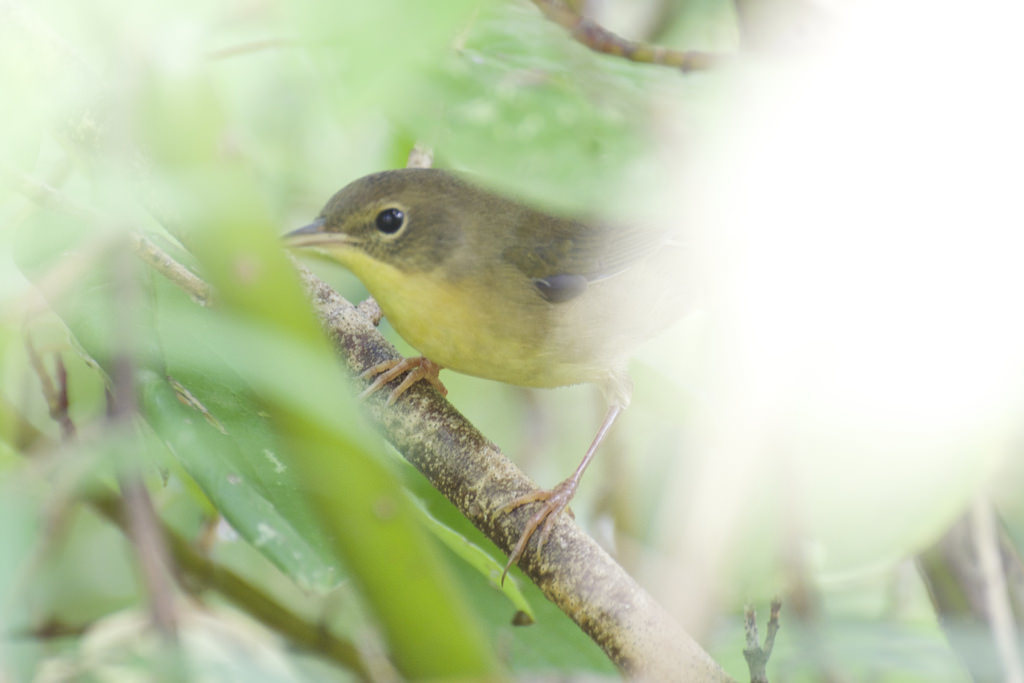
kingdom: Animalia
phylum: Chordata
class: Aves
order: Passeriformes
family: Parulidae
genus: Geothlypis
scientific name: Geothlypis trichas
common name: Common yellowthroat
